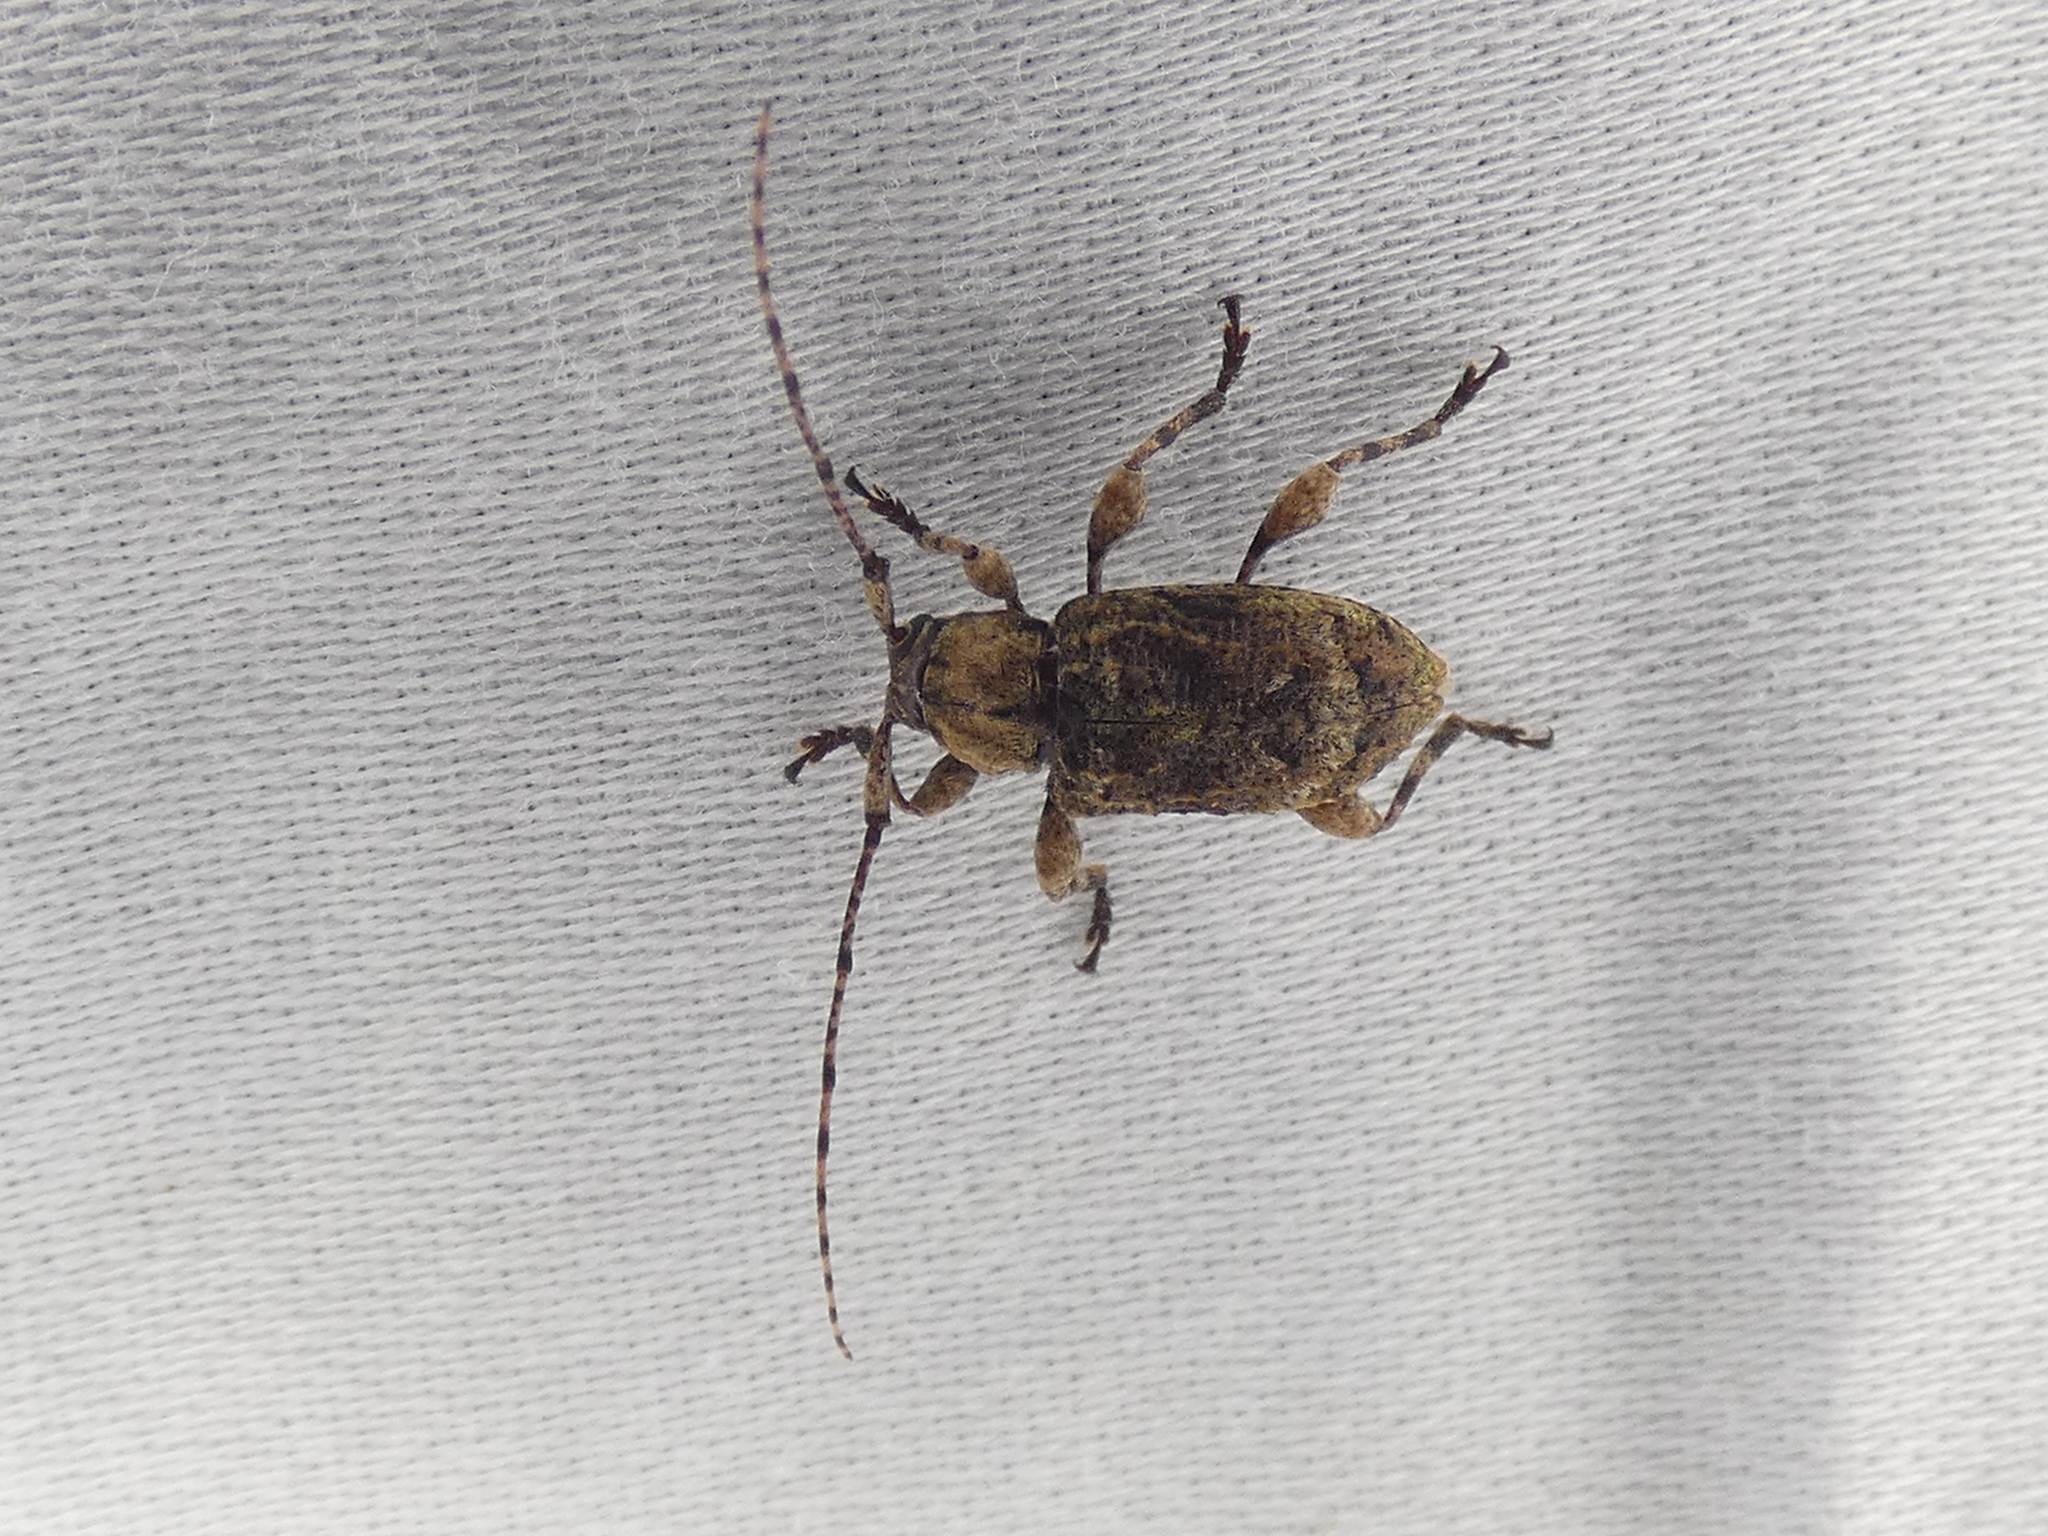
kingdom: Animalia
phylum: Arthropoda
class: Insecta
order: Coleoptera
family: Cerambycidae
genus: Leptostylus
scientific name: Leptostylus transversus
